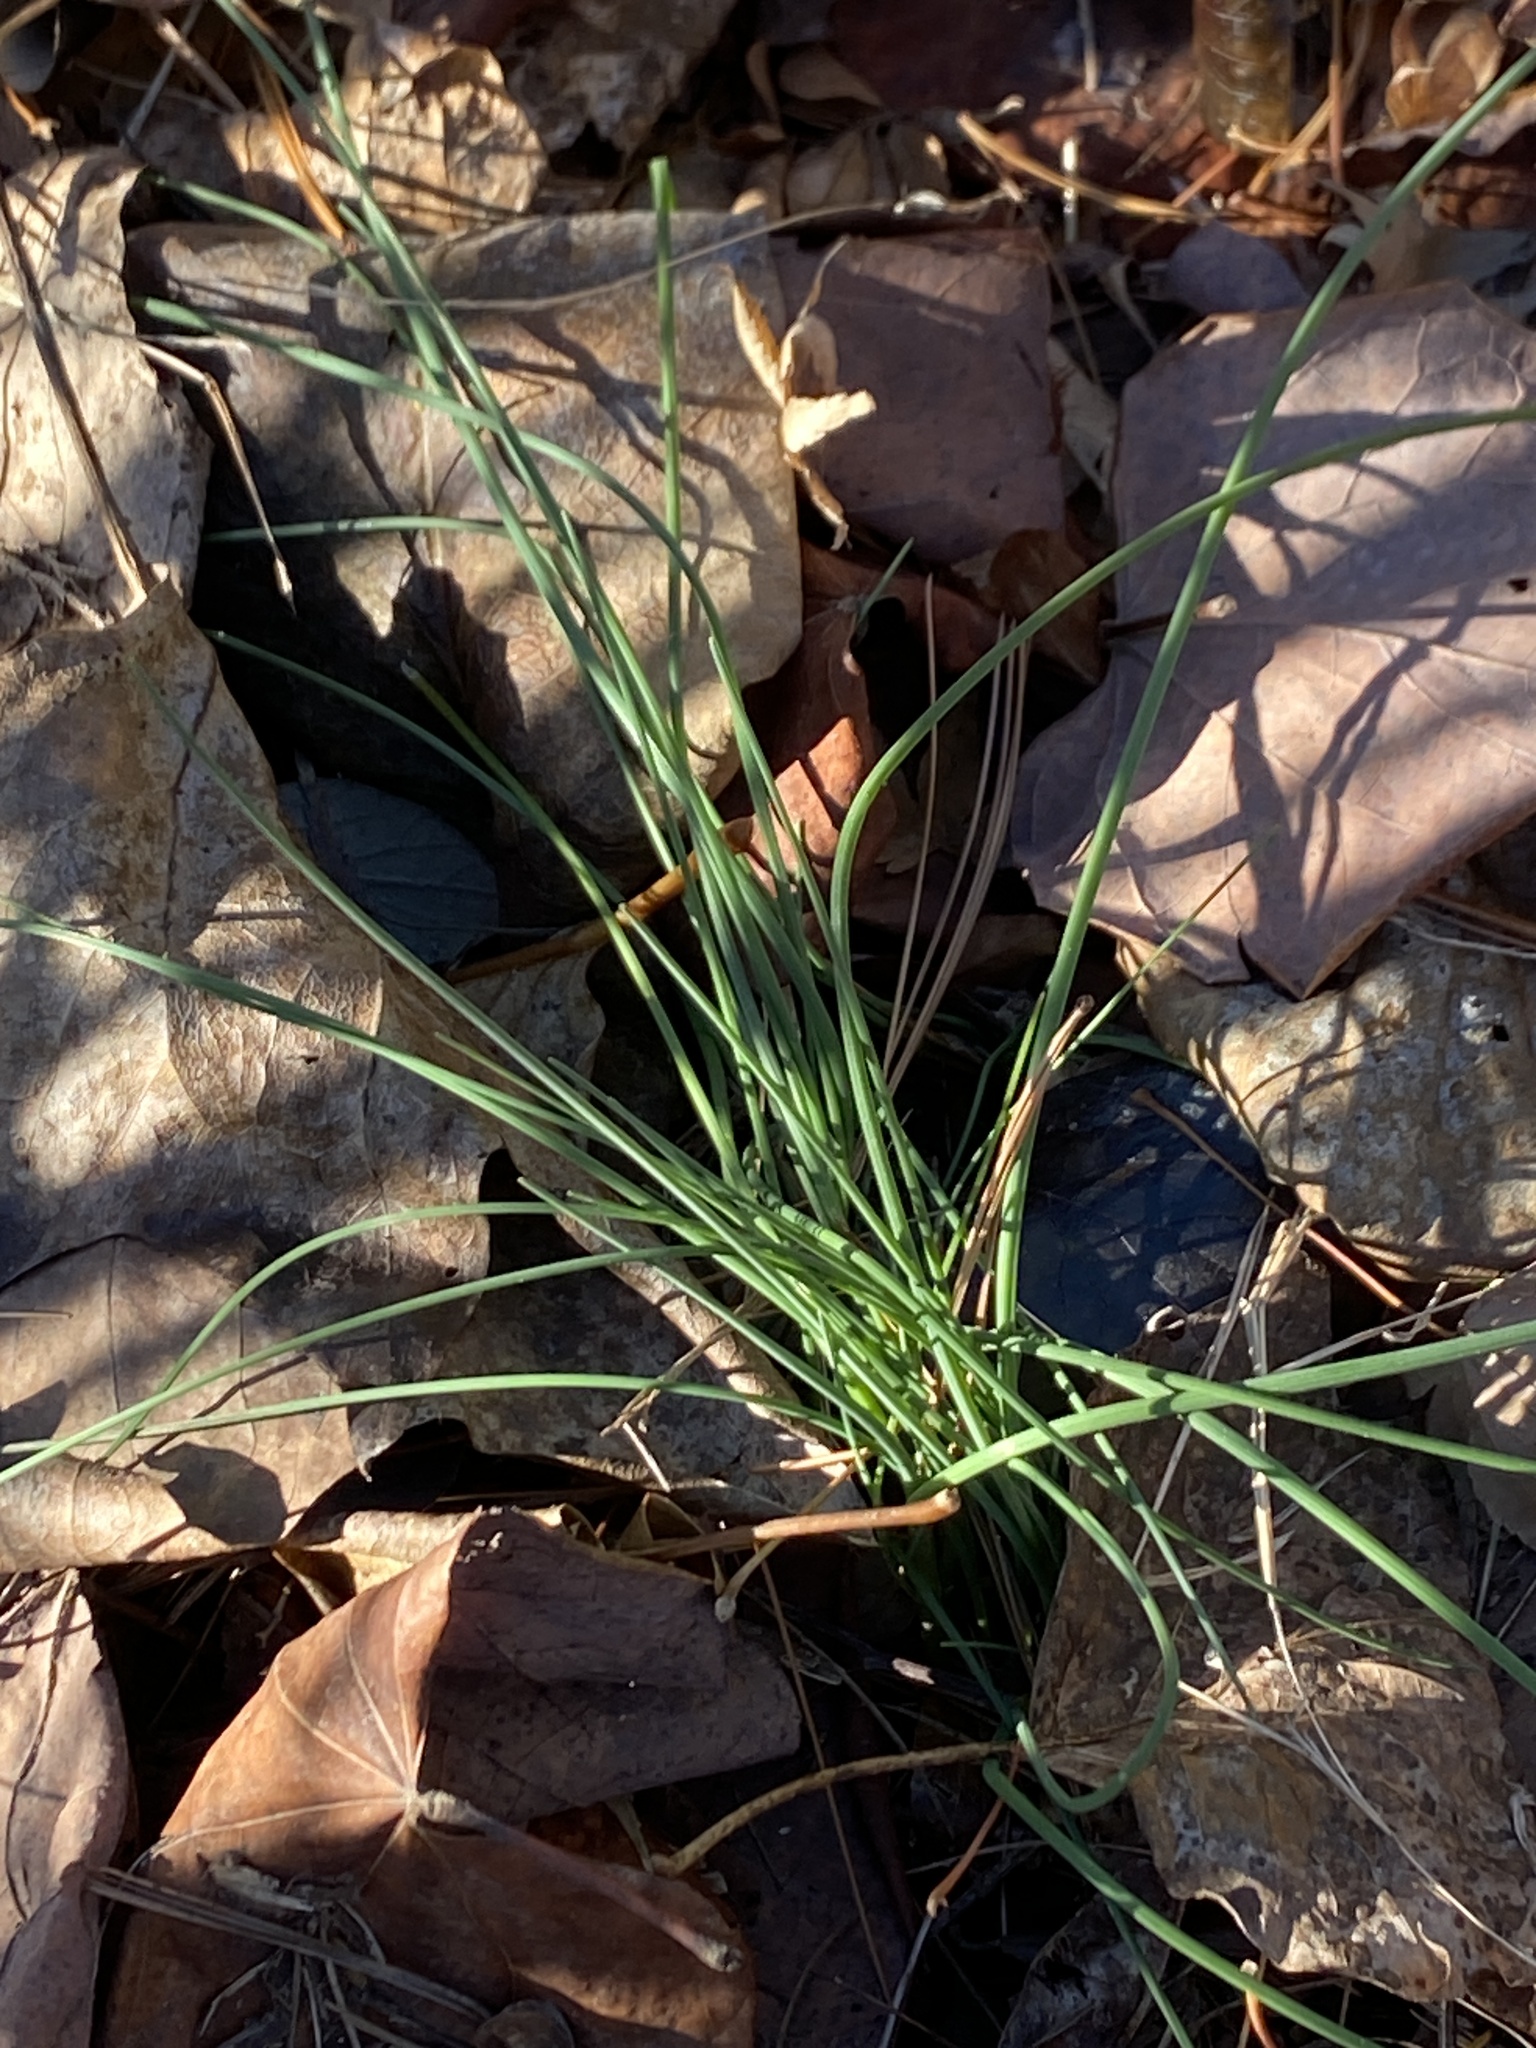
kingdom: Plantae
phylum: Tracheophyta
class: Liliopsida
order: Asparagales
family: Amaryllidaceae
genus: Allium
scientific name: Allium vineale
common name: Crow garlic
